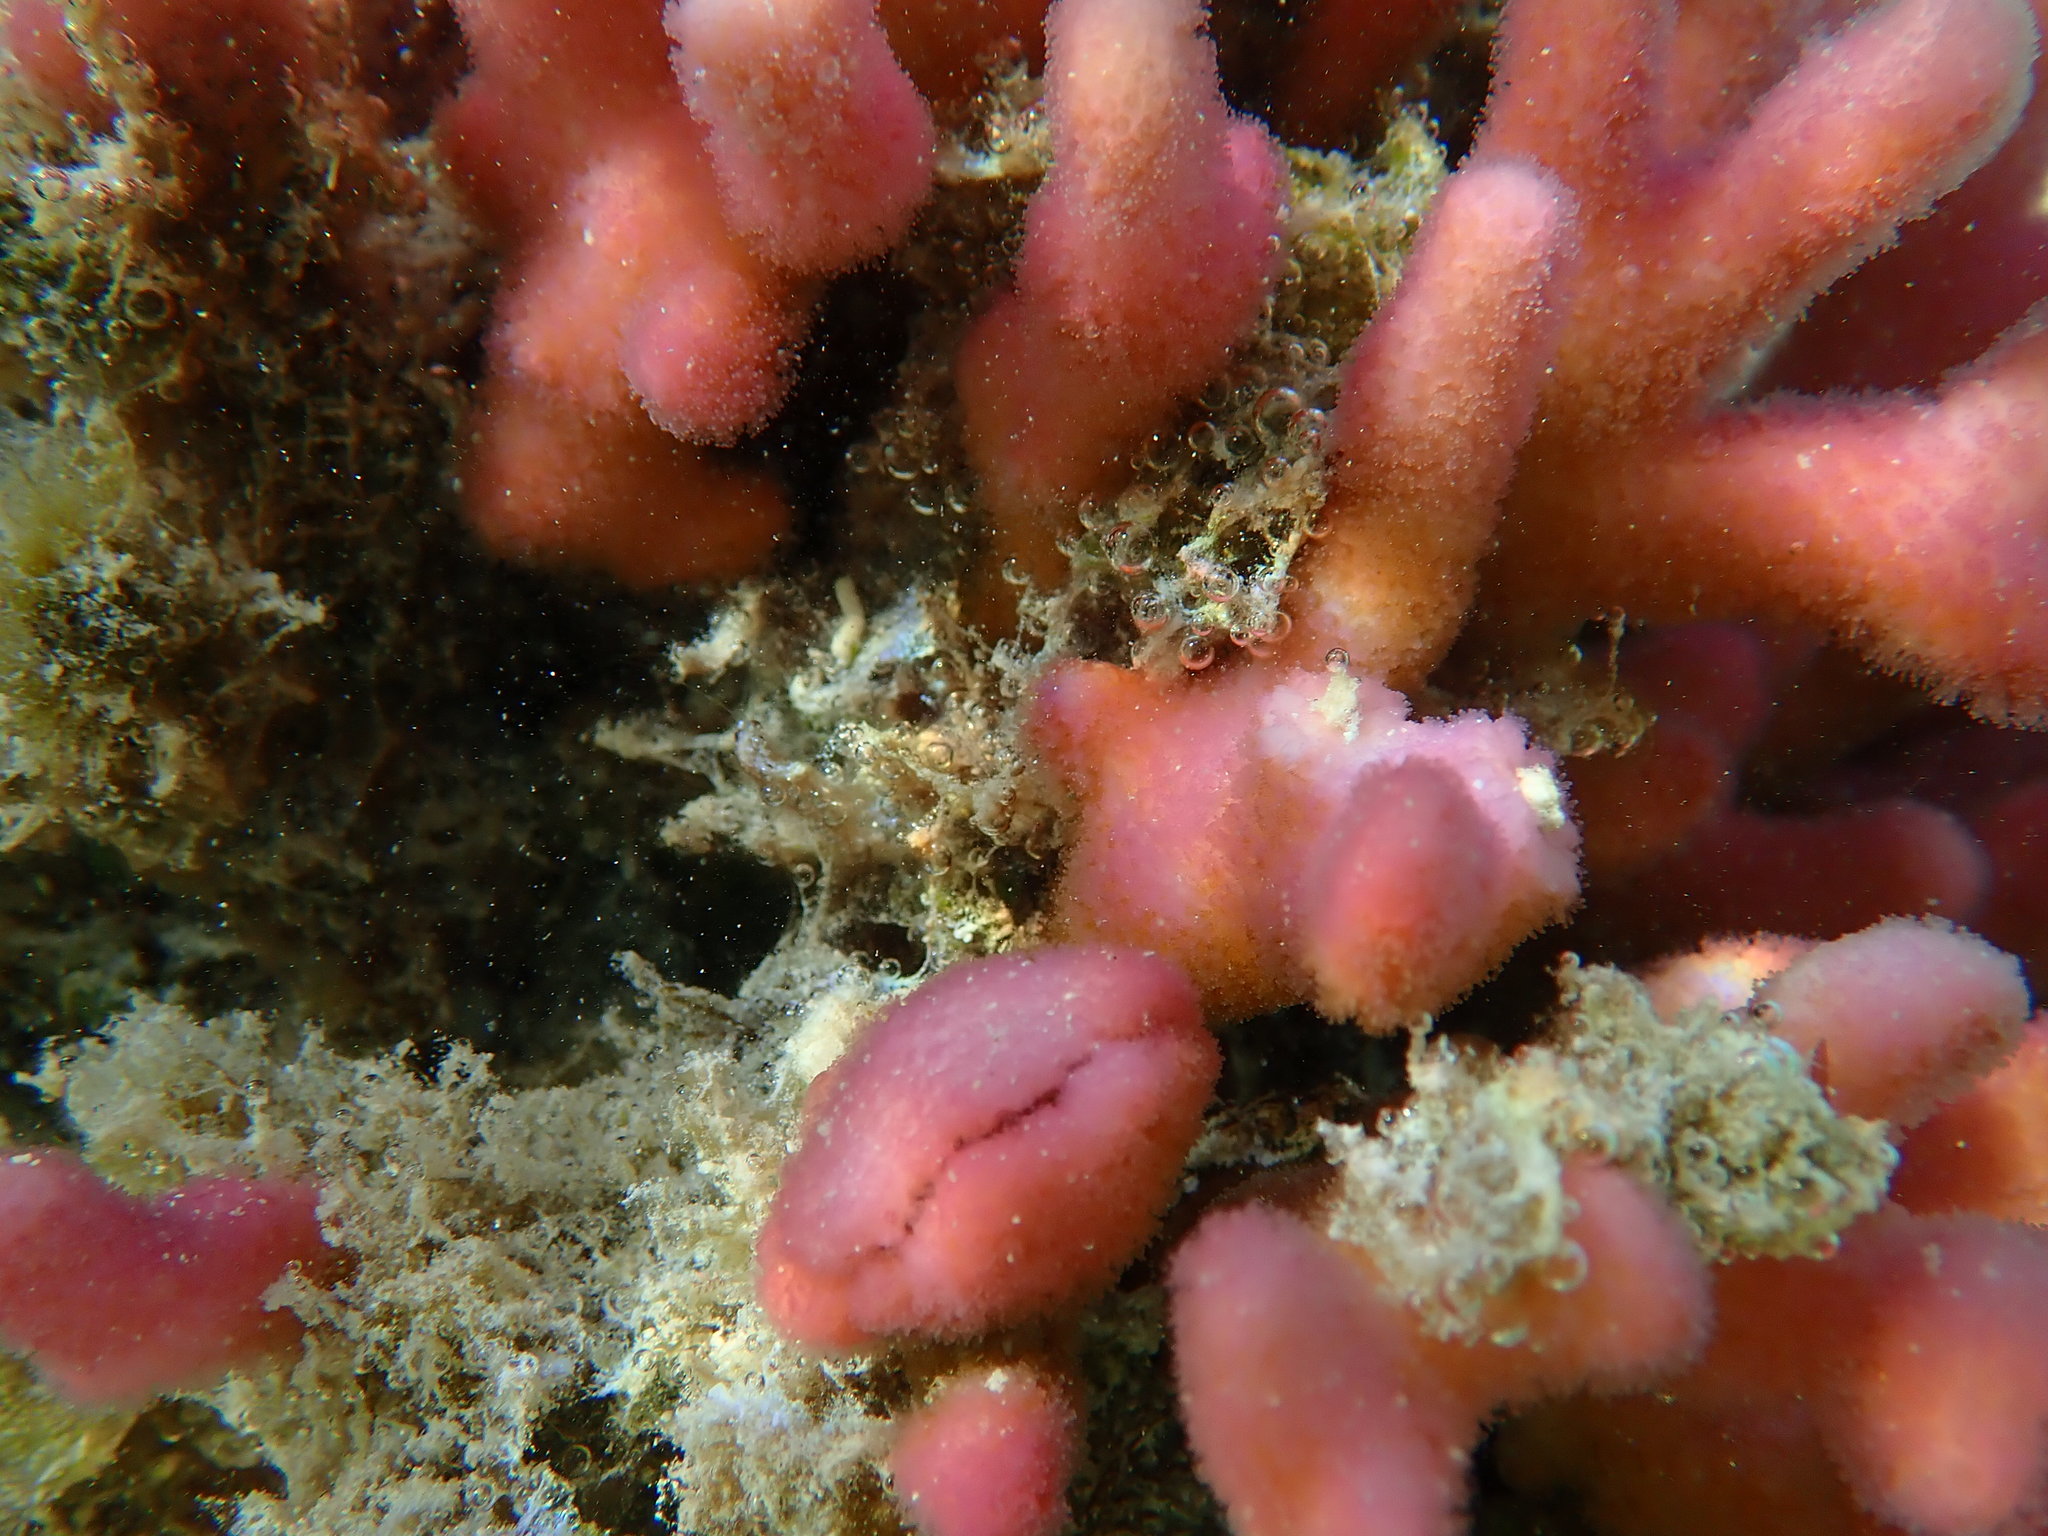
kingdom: Animalia
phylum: Cnidaria
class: Anthozoa
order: Scleractinia
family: Pocilloporidae
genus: Stylophora
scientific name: Stylophora pistillata
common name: Hood coral
